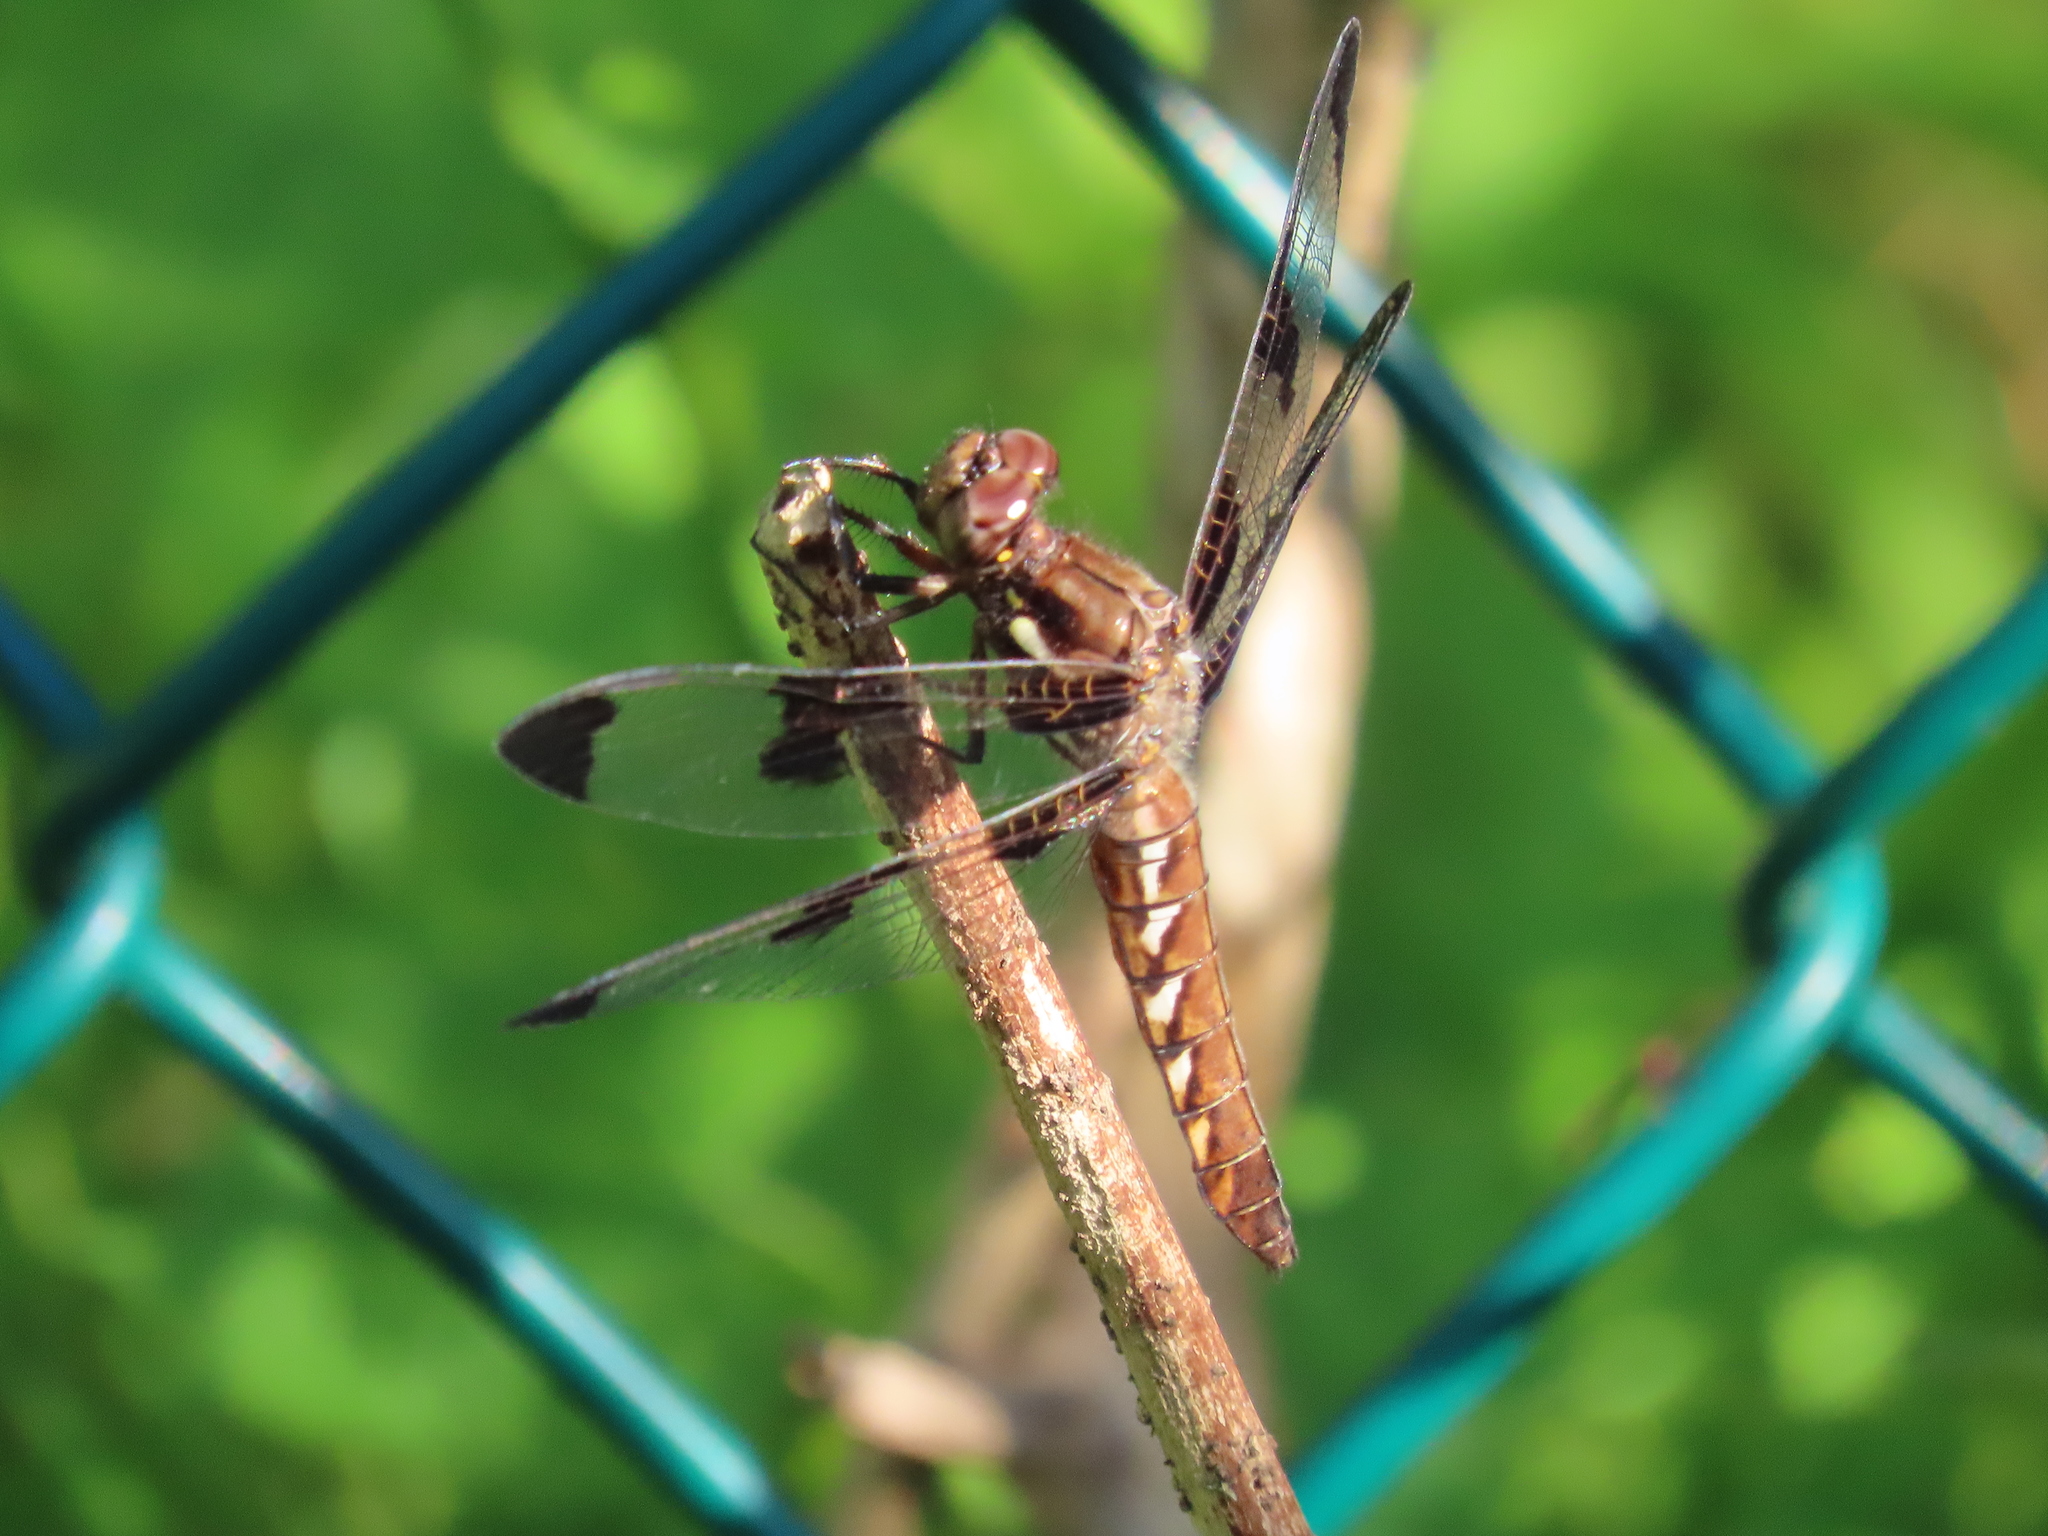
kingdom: Animalia
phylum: Arthropoda
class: Insecta
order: Odonata
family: Libellulidae
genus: Plathemis
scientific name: Plathemis lydia
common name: Common whitetail
